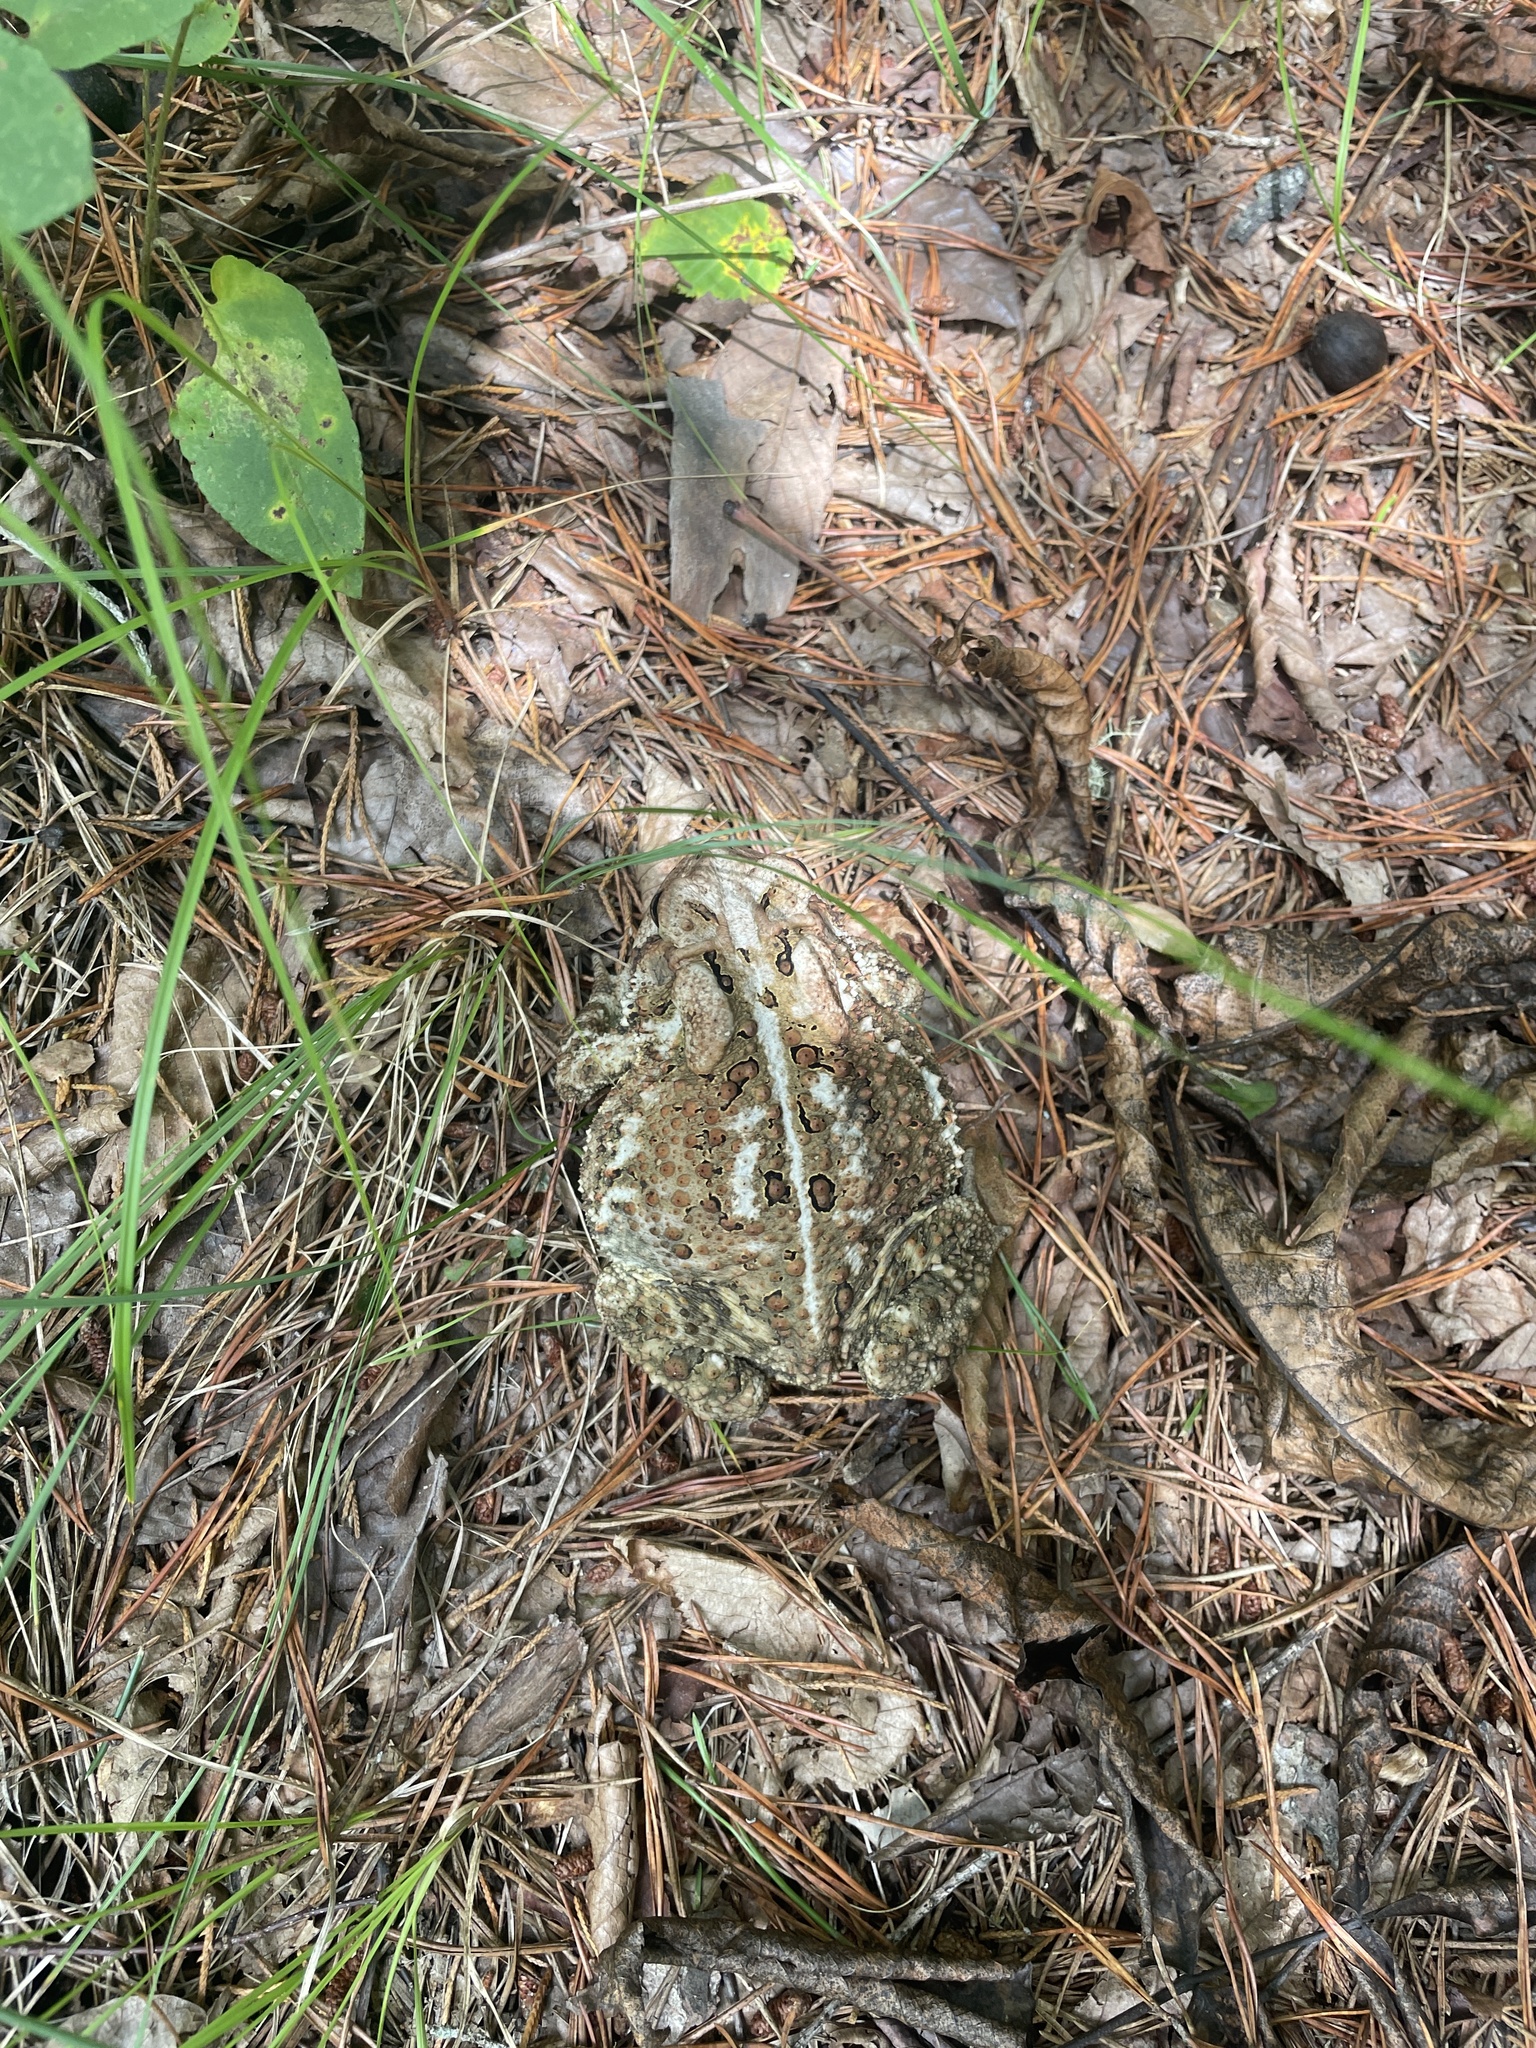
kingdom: Animalia
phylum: Chordata
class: Amphibia
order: Anura
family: Bufonidae
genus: Anaxyrus
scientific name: Anaxyrus americanus
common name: American toad
